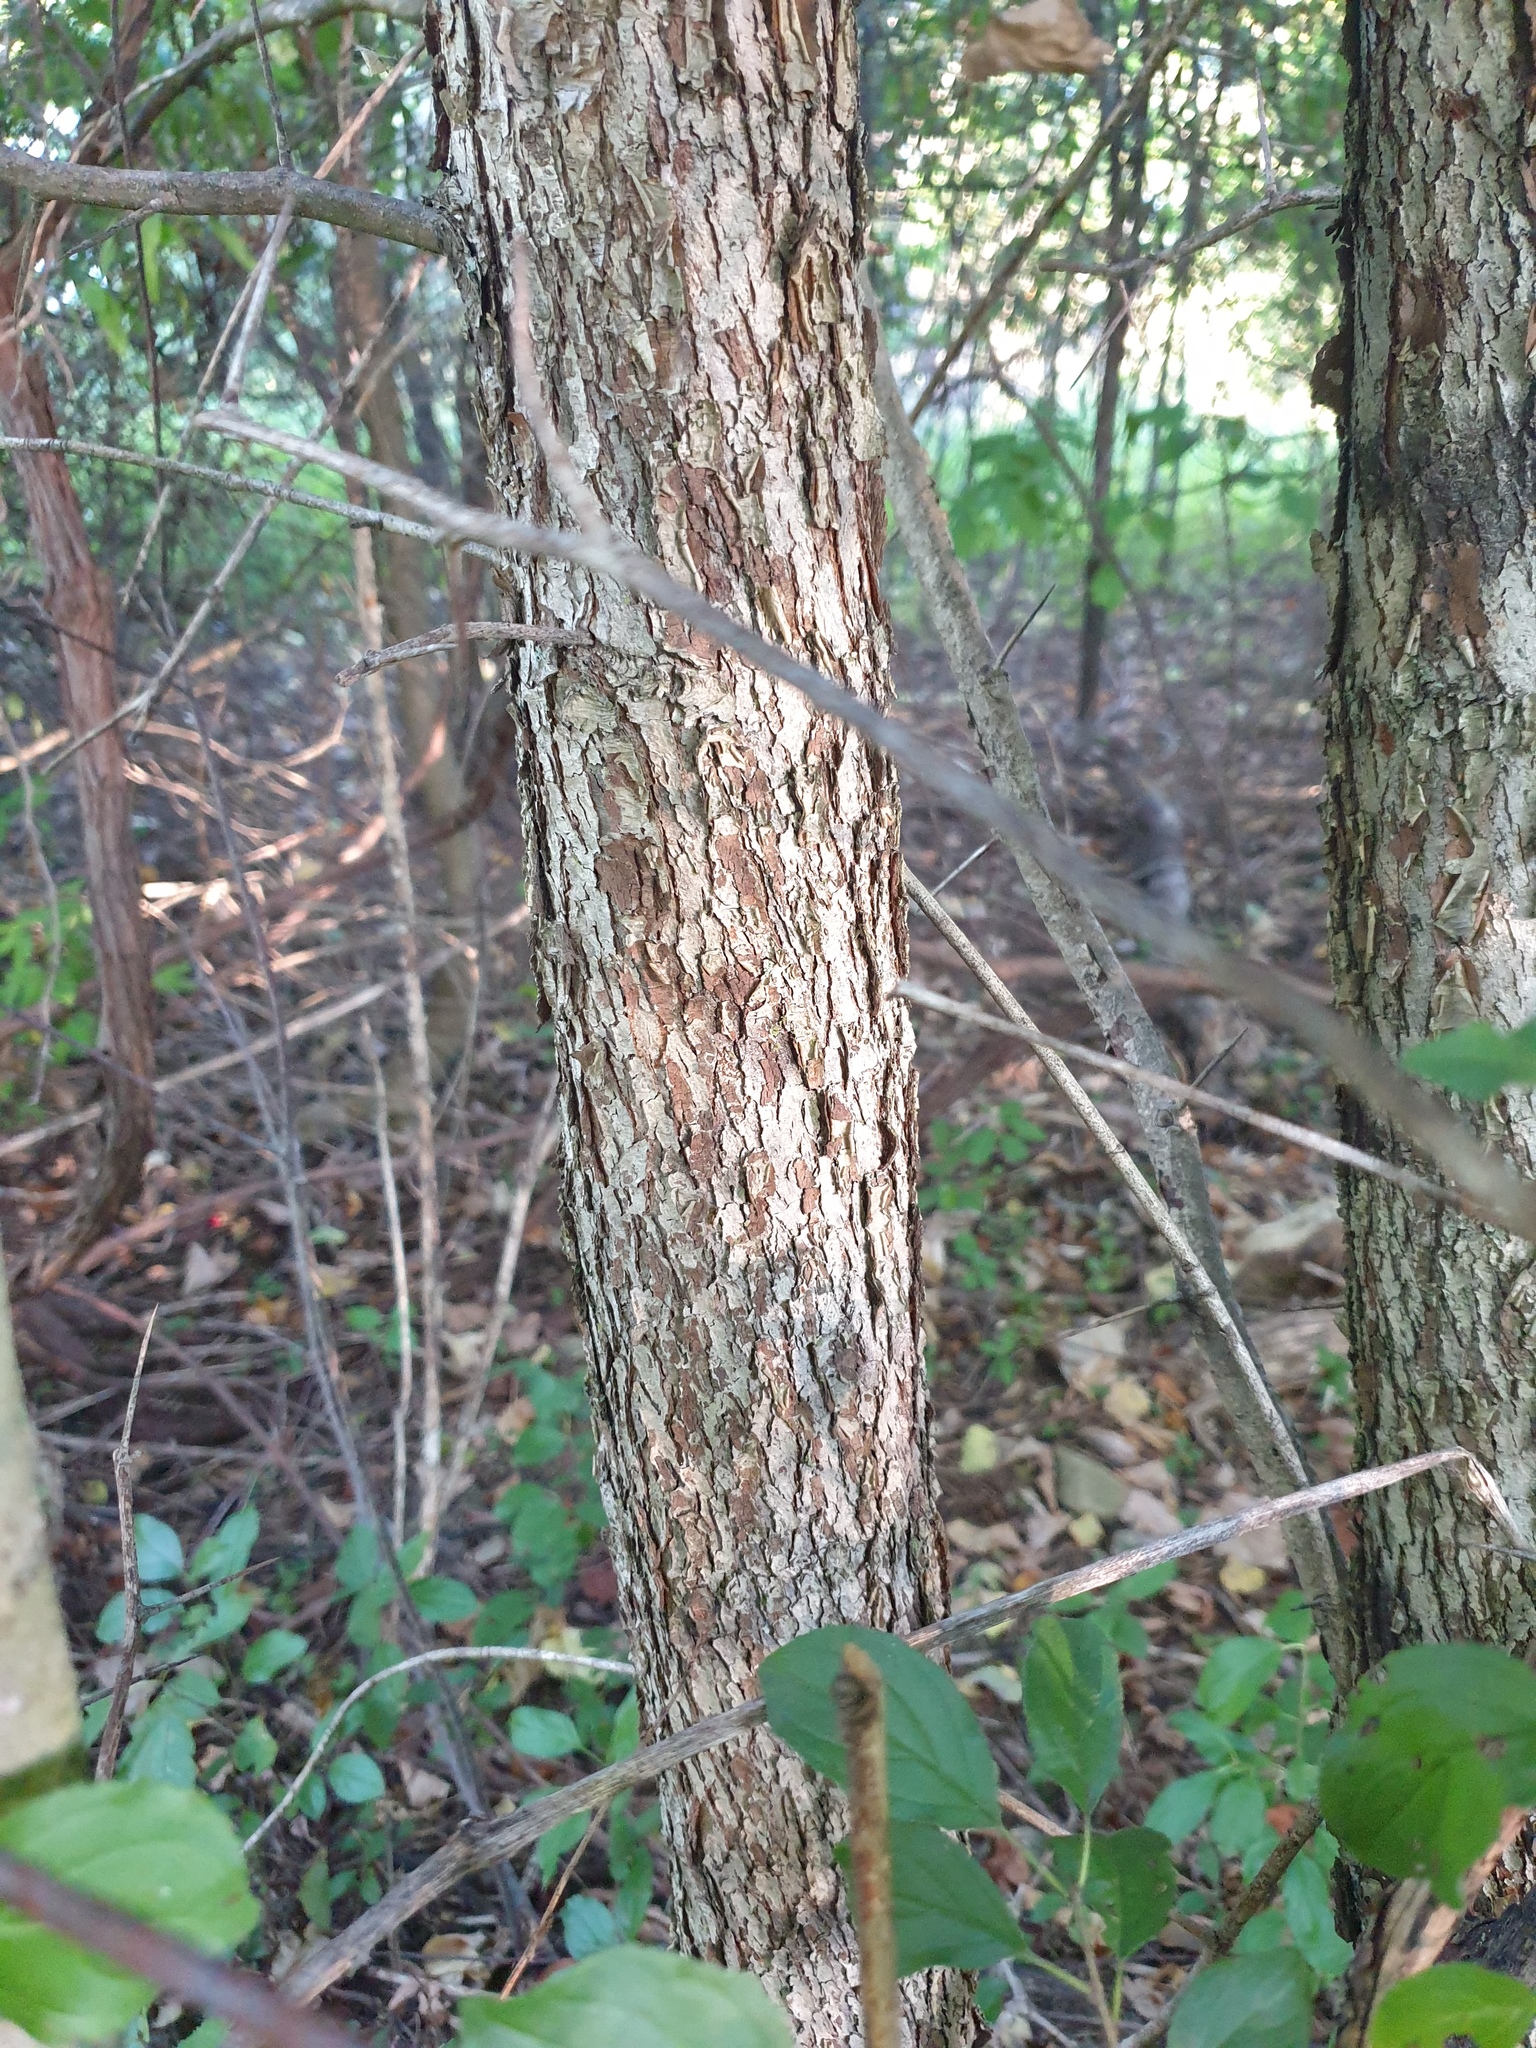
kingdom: Plantae
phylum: Tracheophyta
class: Magnoliopsida
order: Rosales
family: Rosaceae
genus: Crataegus
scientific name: Crataegus coccinioides
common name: Large-flowered cockspurthorn
